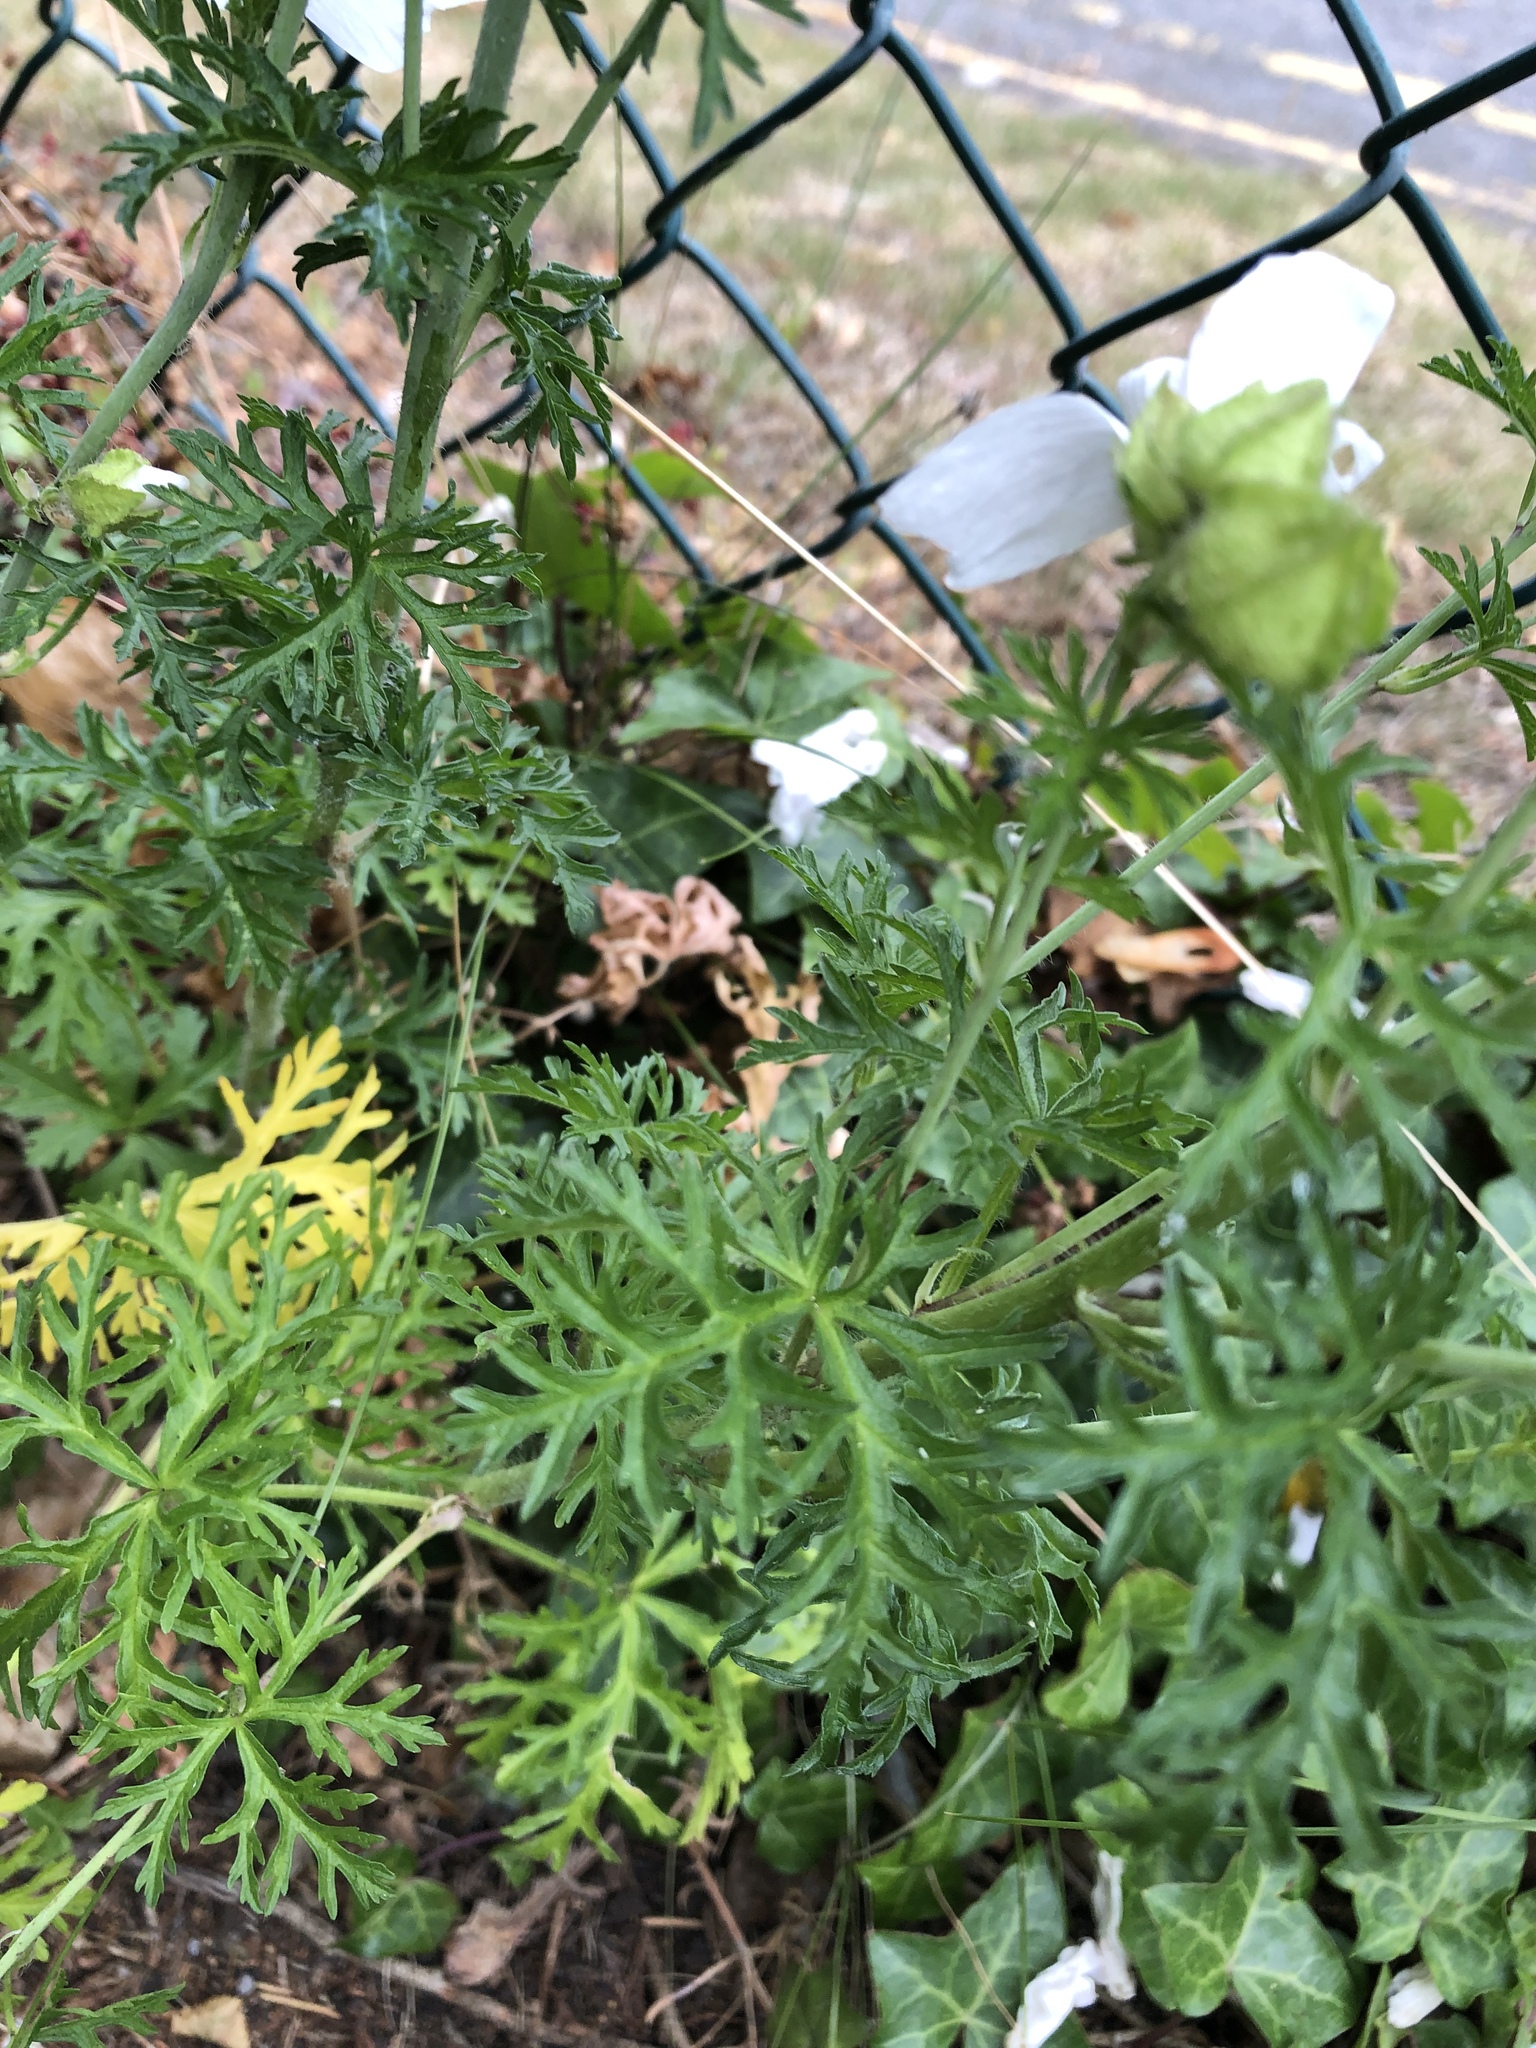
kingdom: Plantae
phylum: Tracheophyta
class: Magnoliopsida
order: Malvales
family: Malvaceae
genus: Malva
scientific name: Malva moschata
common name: Musk mallow
